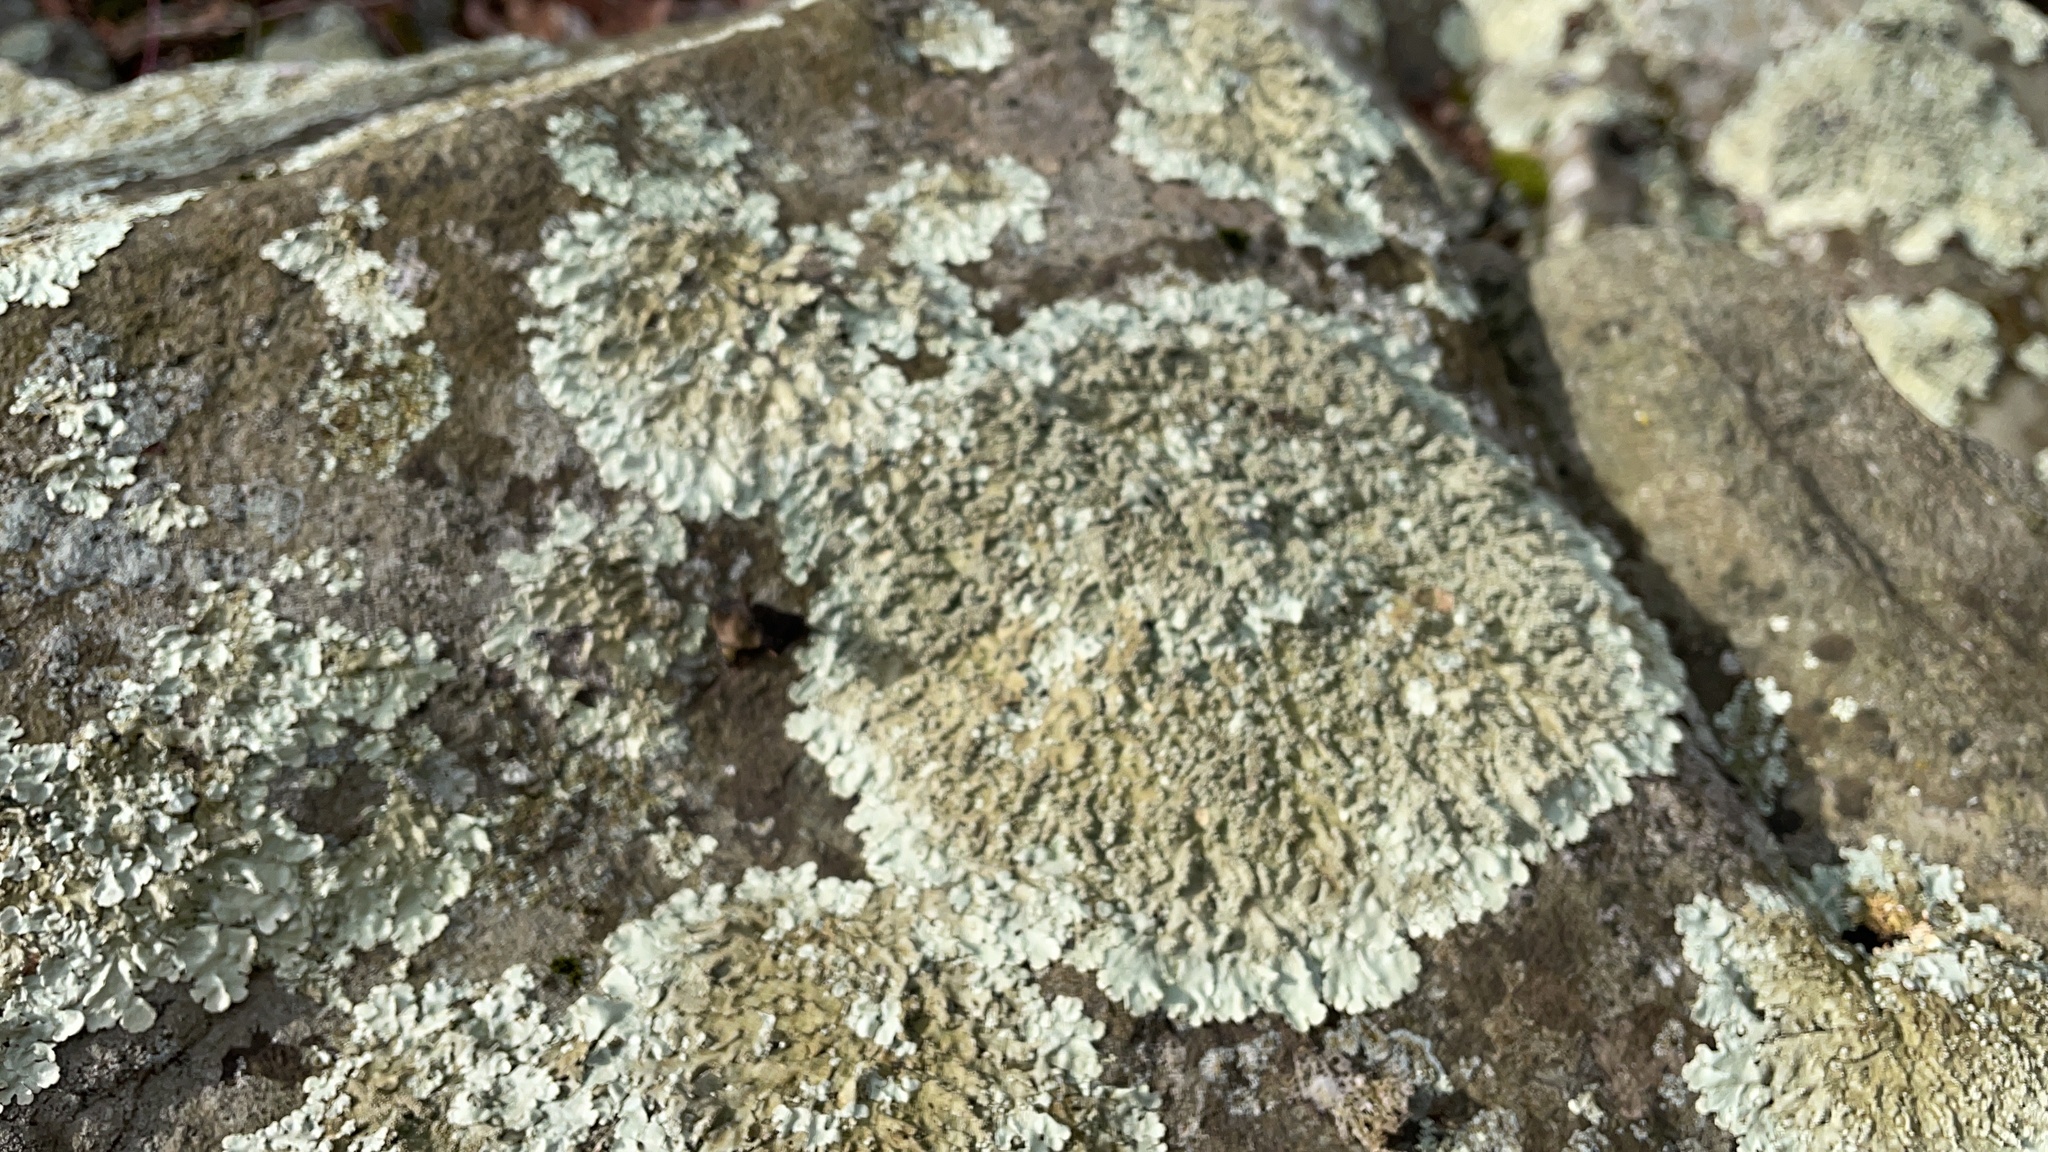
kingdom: Fungi
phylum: Ascomycota
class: Lecanoromycetes
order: Lecanorales
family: Parmeliaceae
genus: Flavoparmelia
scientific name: Flavoparmelia baltimorensis
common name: Rock greenshield
